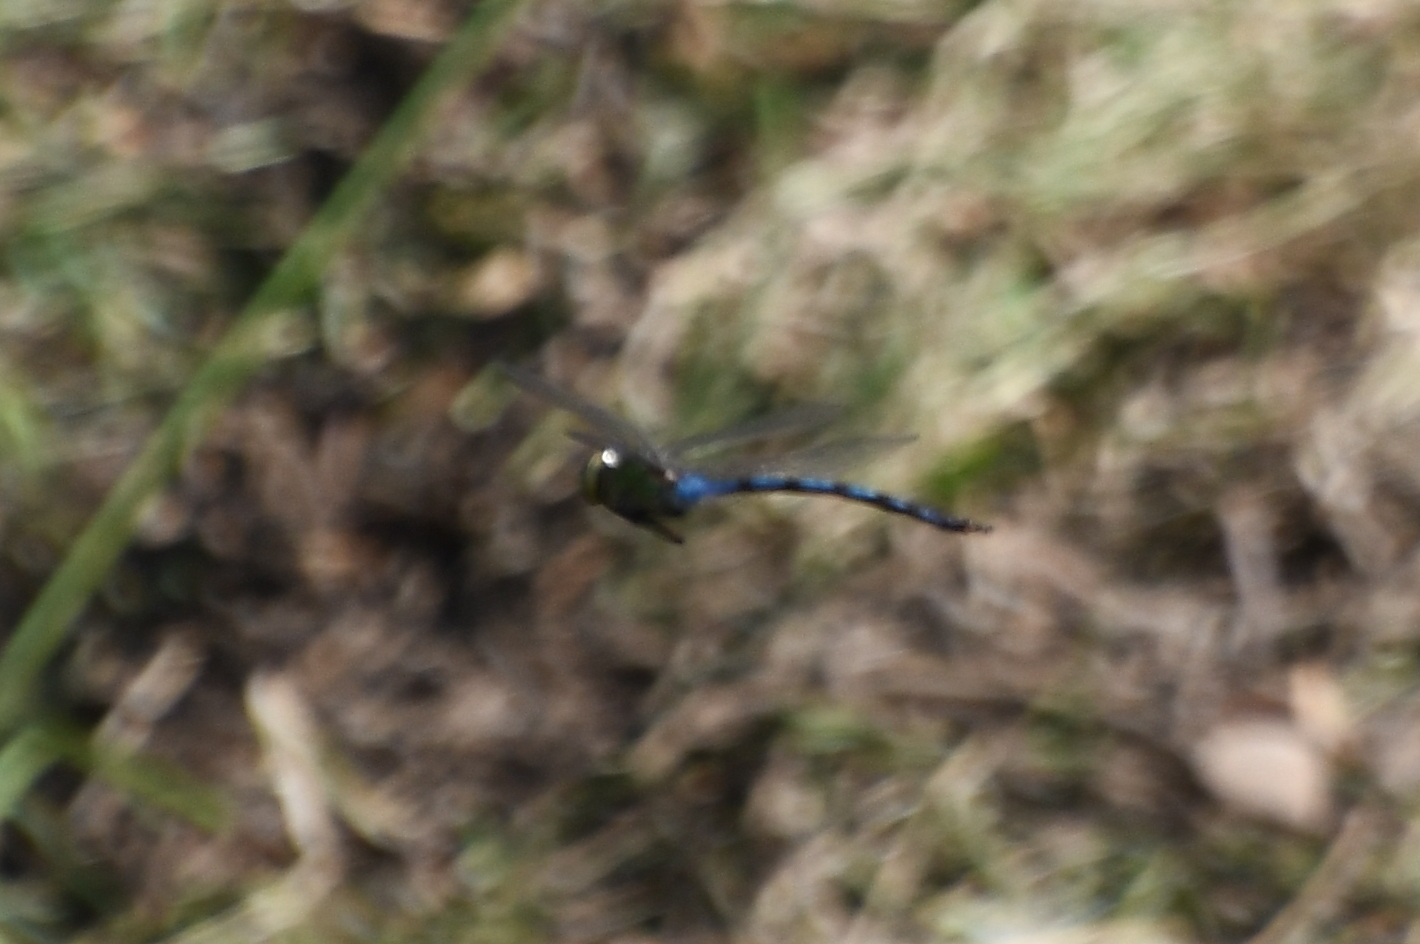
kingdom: Animalia
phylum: Arthropoda
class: Insecta
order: Odonata
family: Aeshnidae
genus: Anax
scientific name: Anax walsinghami
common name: Giant darner
